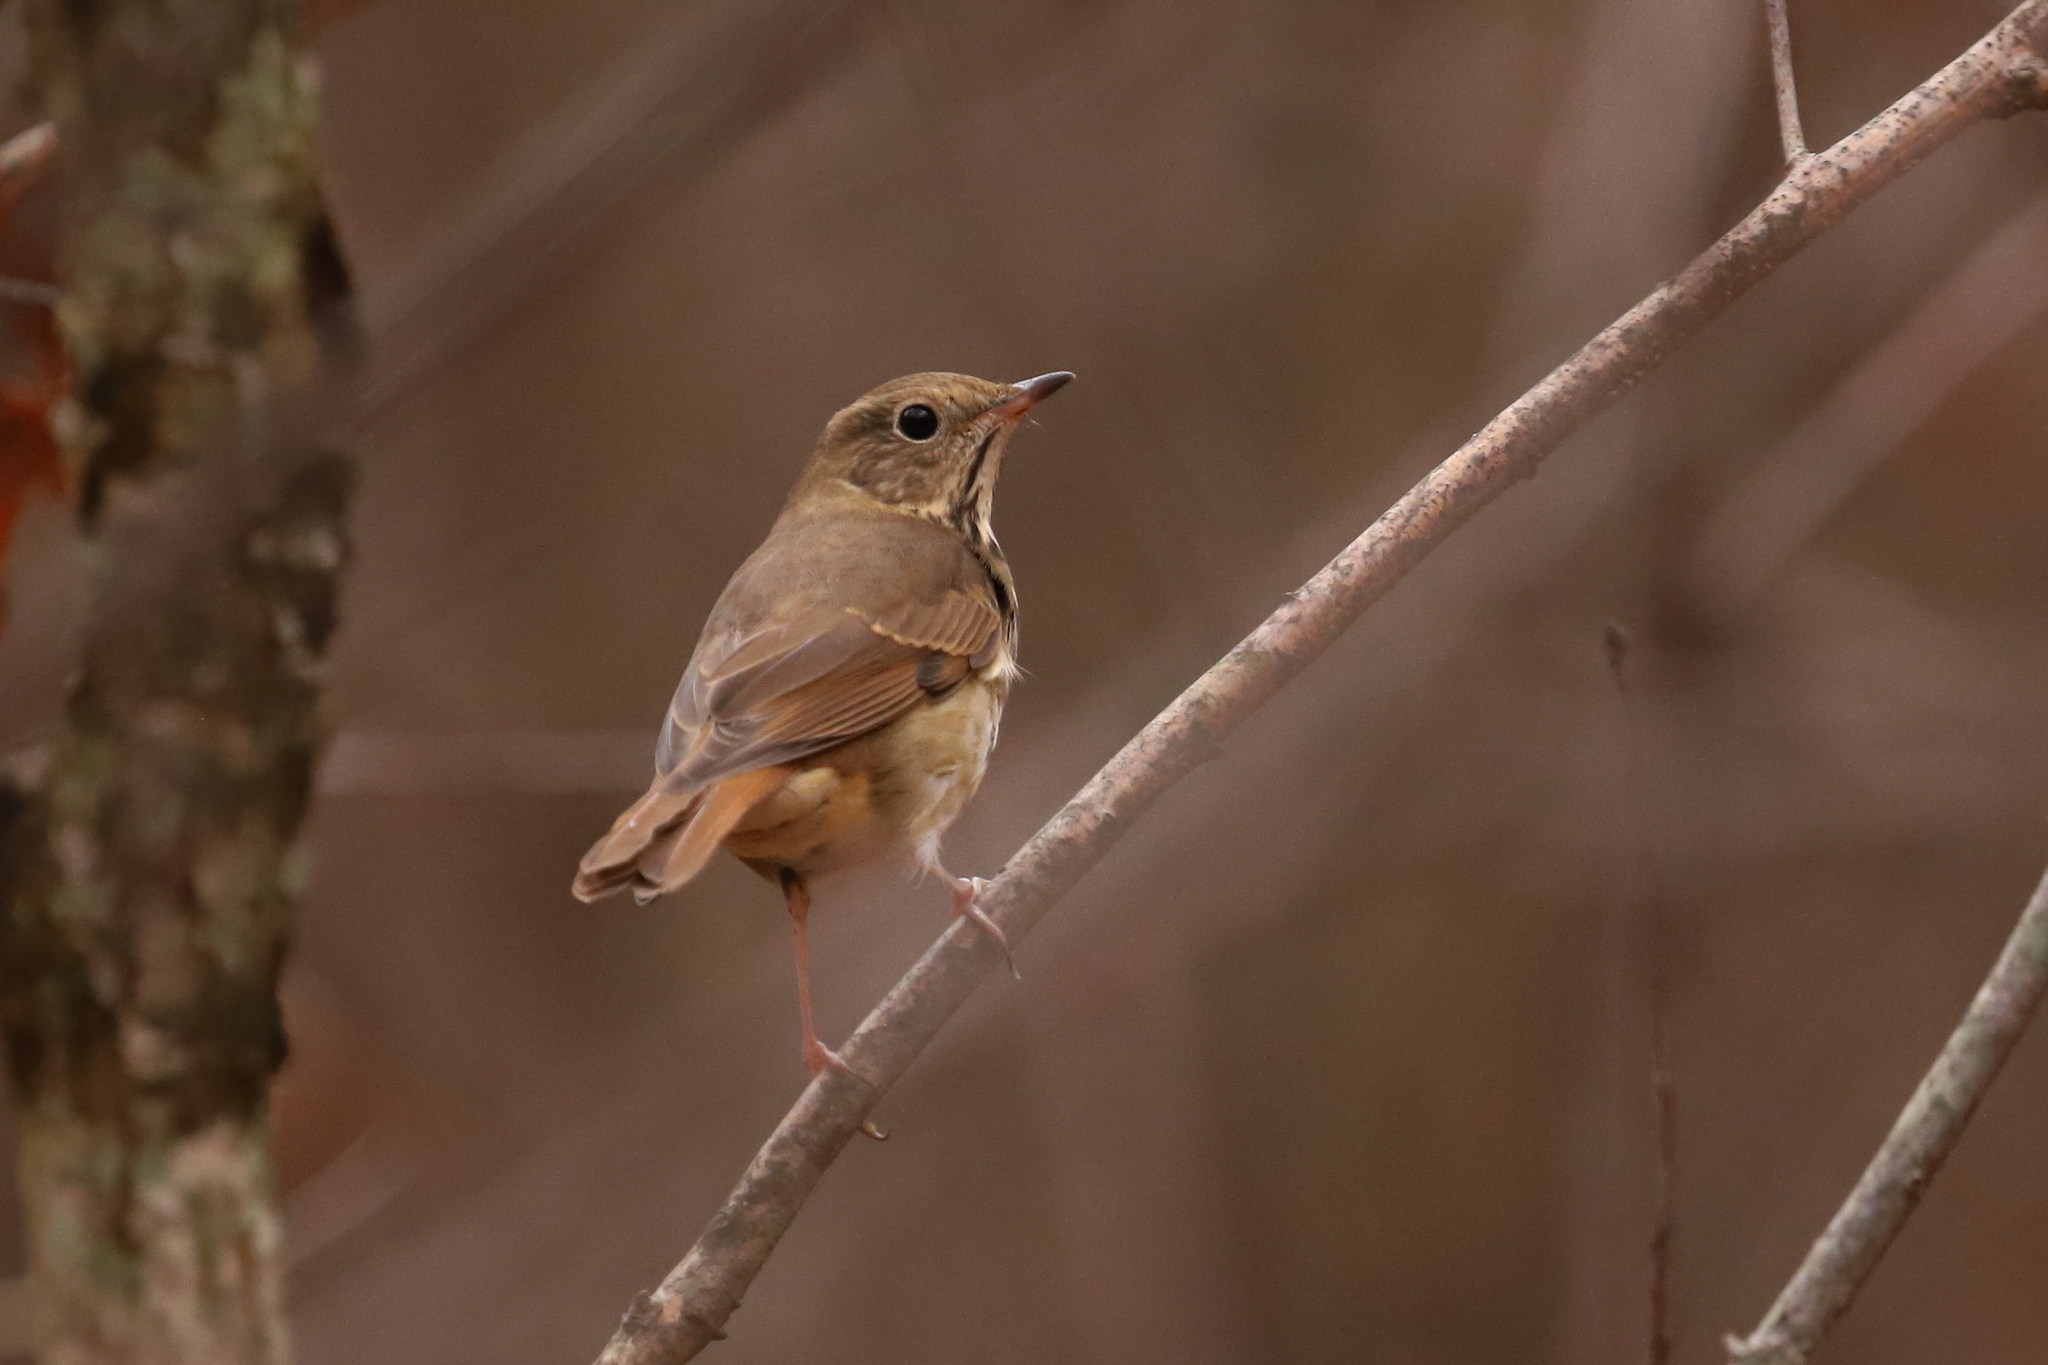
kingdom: Animalia
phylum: Chordata
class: Aves
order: Passeriformes
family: Turdidae
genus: Catharus
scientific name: Catharus guttatus
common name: Hermit thrush
